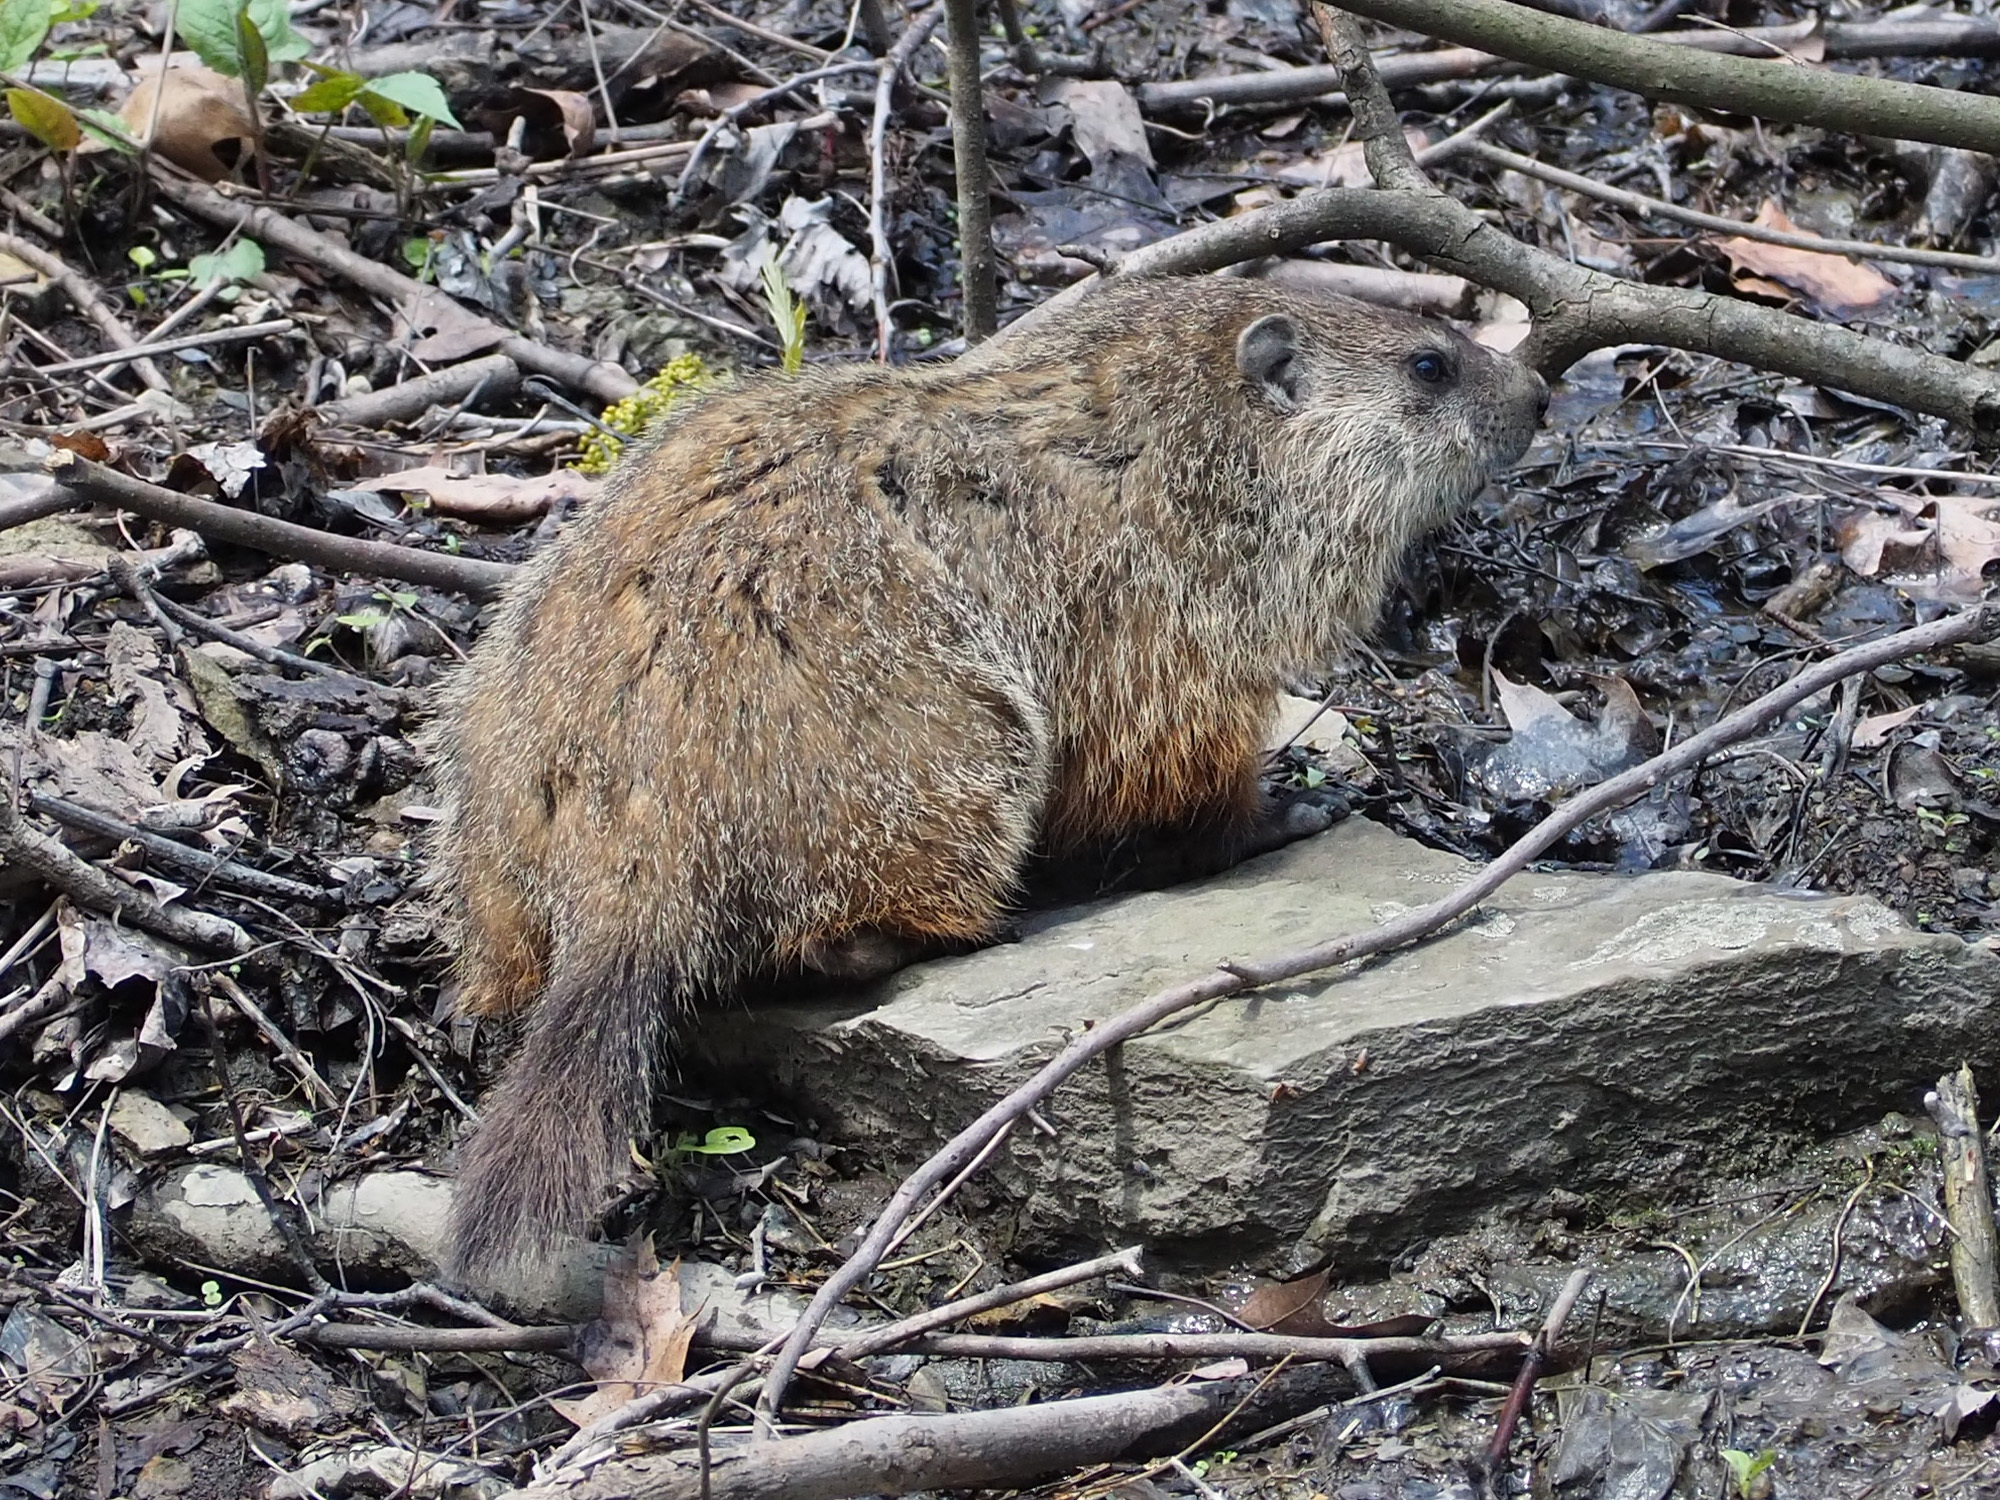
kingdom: Animalia
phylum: Chordata
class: Mammalia
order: Rodentia
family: Sciuridae
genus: Marmota
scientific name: Marmota monax
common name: Groundhog
